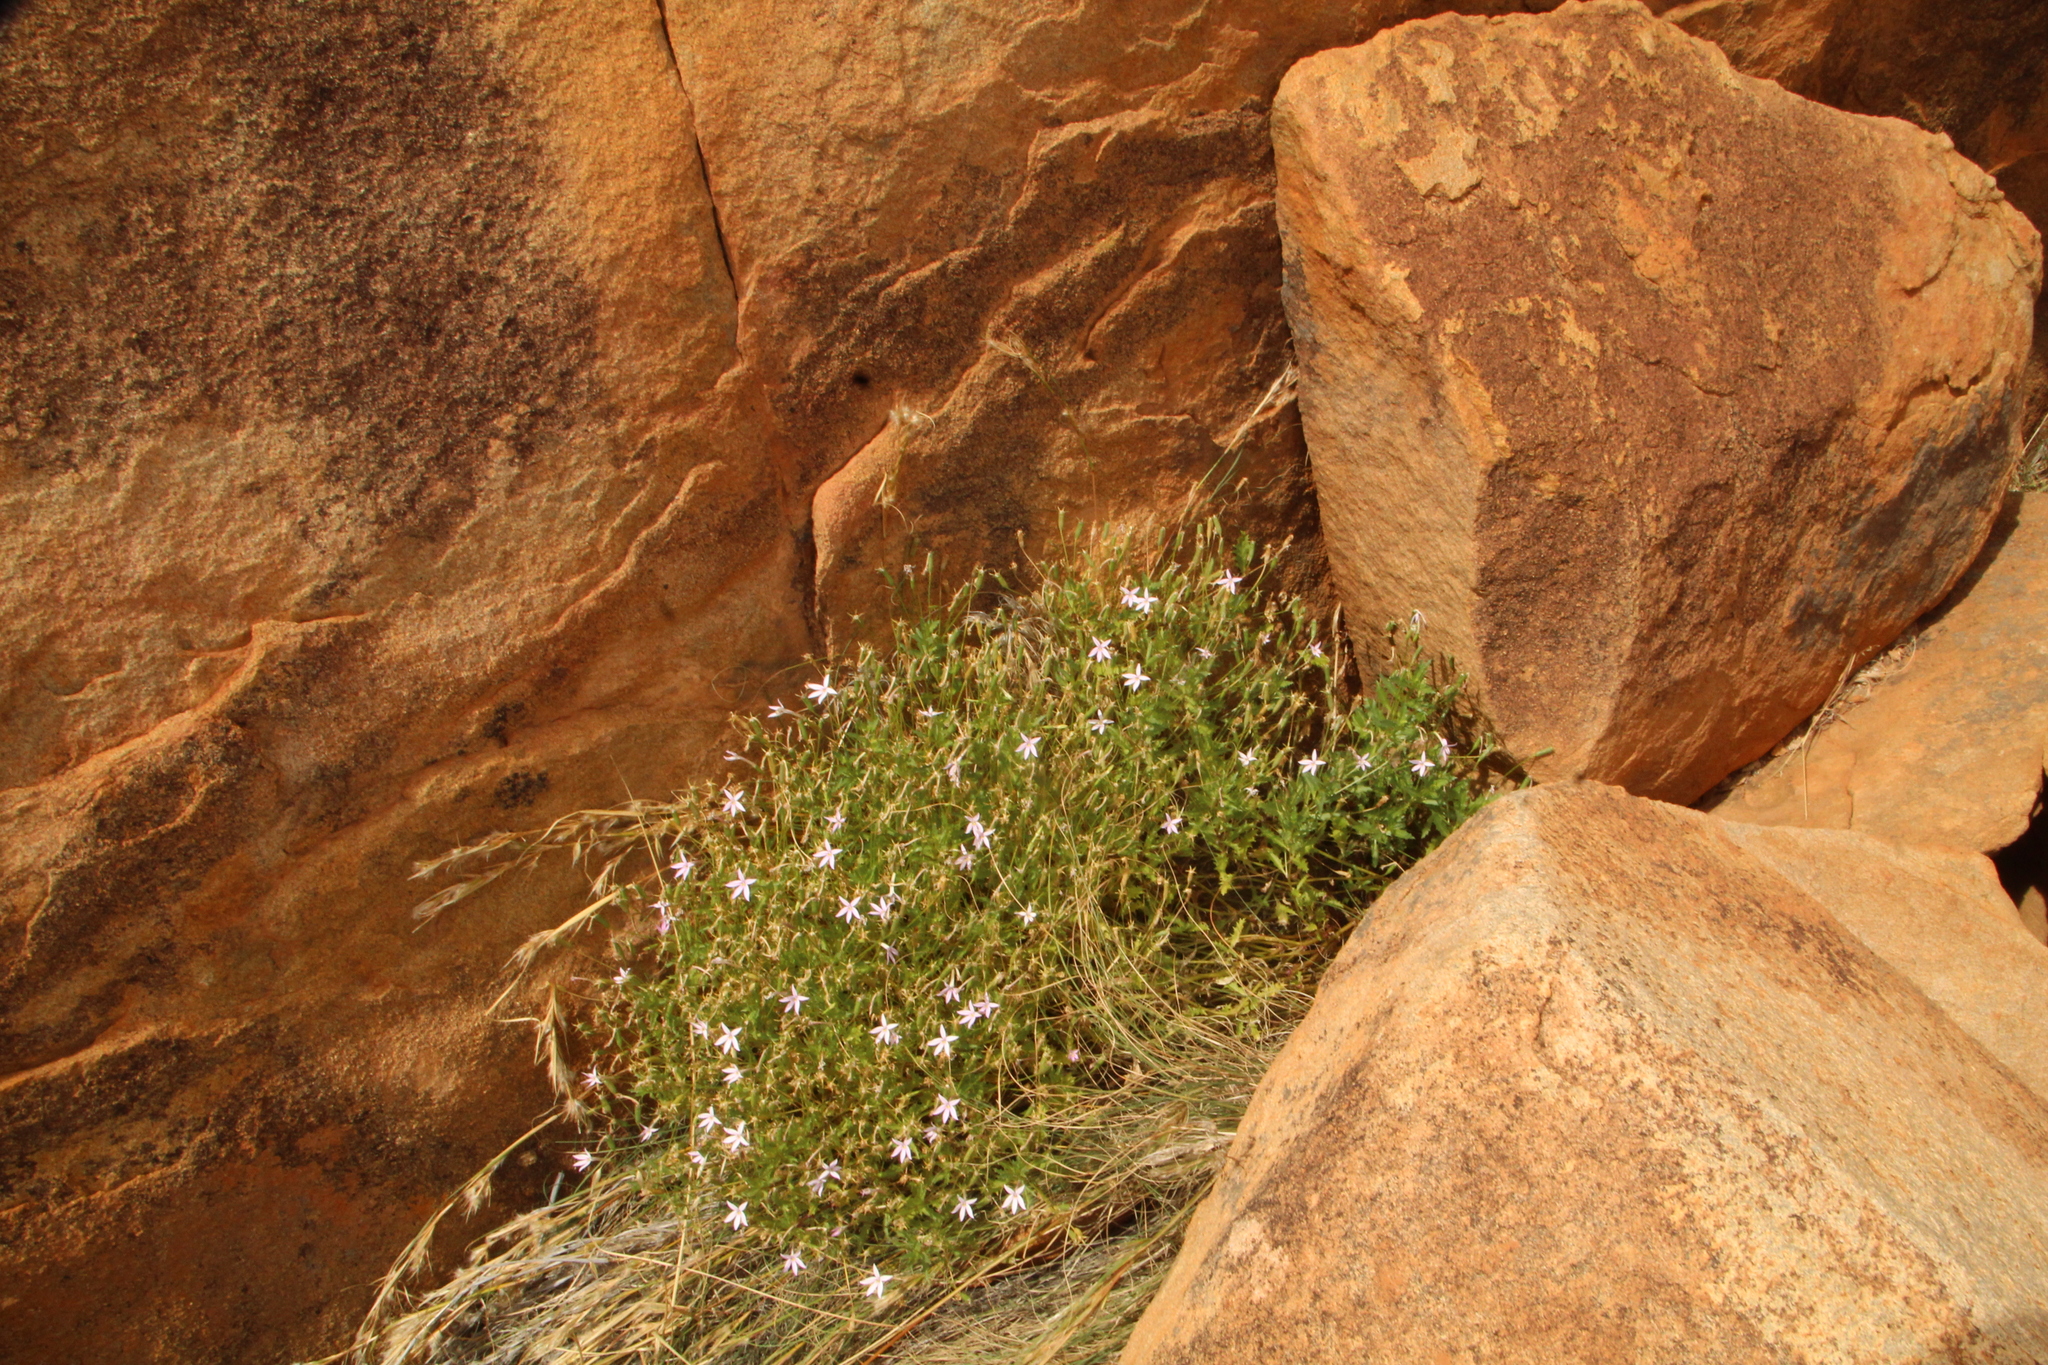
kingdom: Plantae
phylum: Tracheophyta
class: Magnoliopsida
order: Asterales
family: Campanulaceae
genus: Lithotoma
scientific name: Lithotoma petraea
